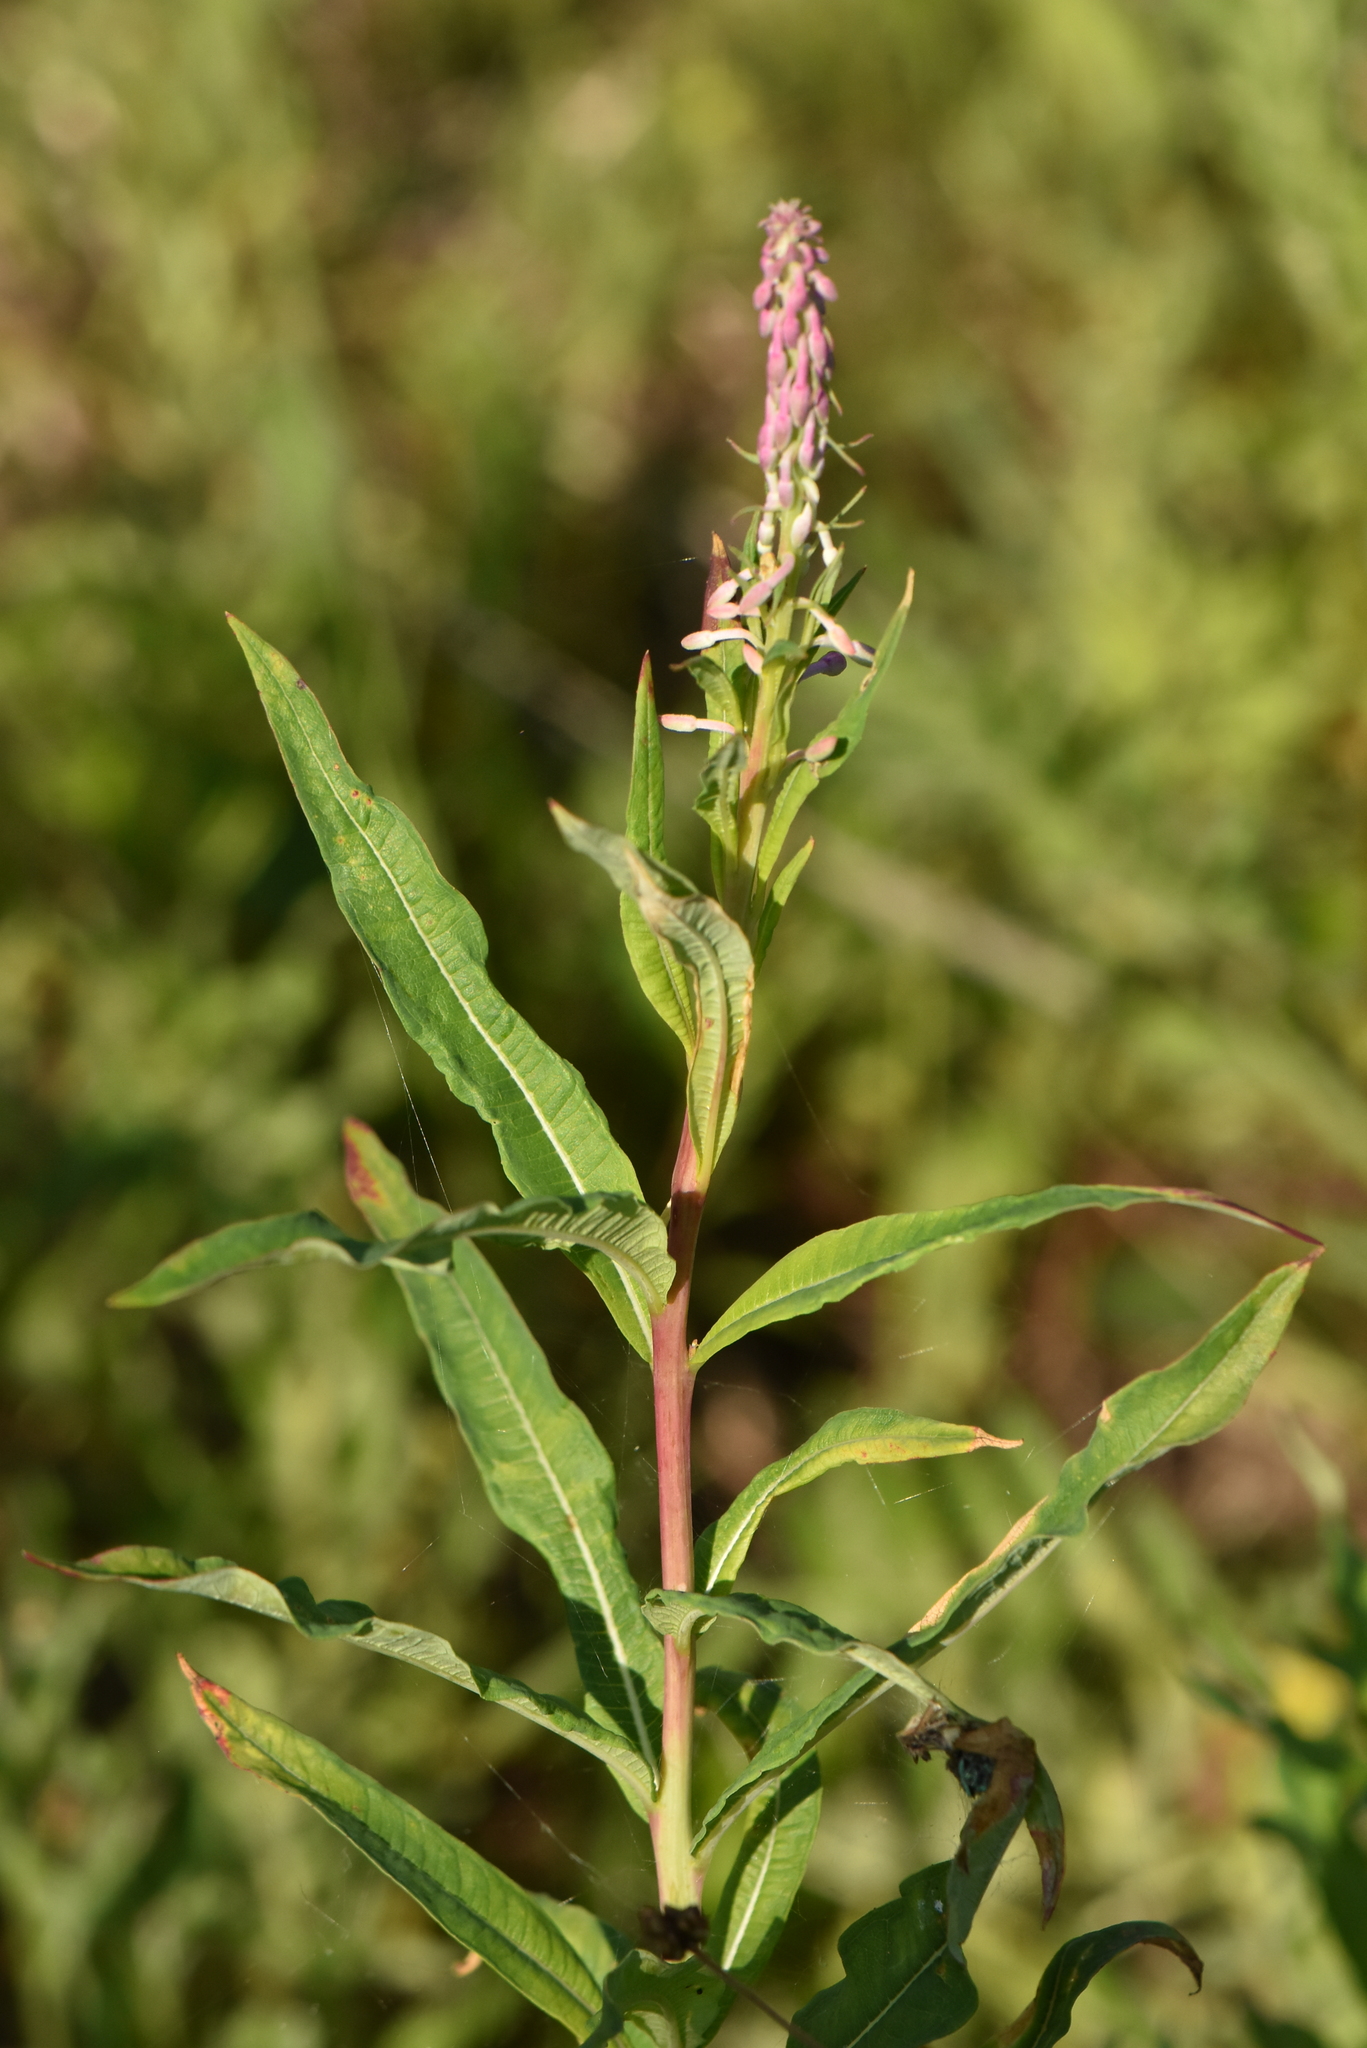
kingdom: Plantae
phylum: Tracheophyta
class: Magnoliopsida
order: Myrtales
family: Onagraceae
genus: Chamaenerion
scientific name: Chamaenerion angustifolium
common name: Fireweed
